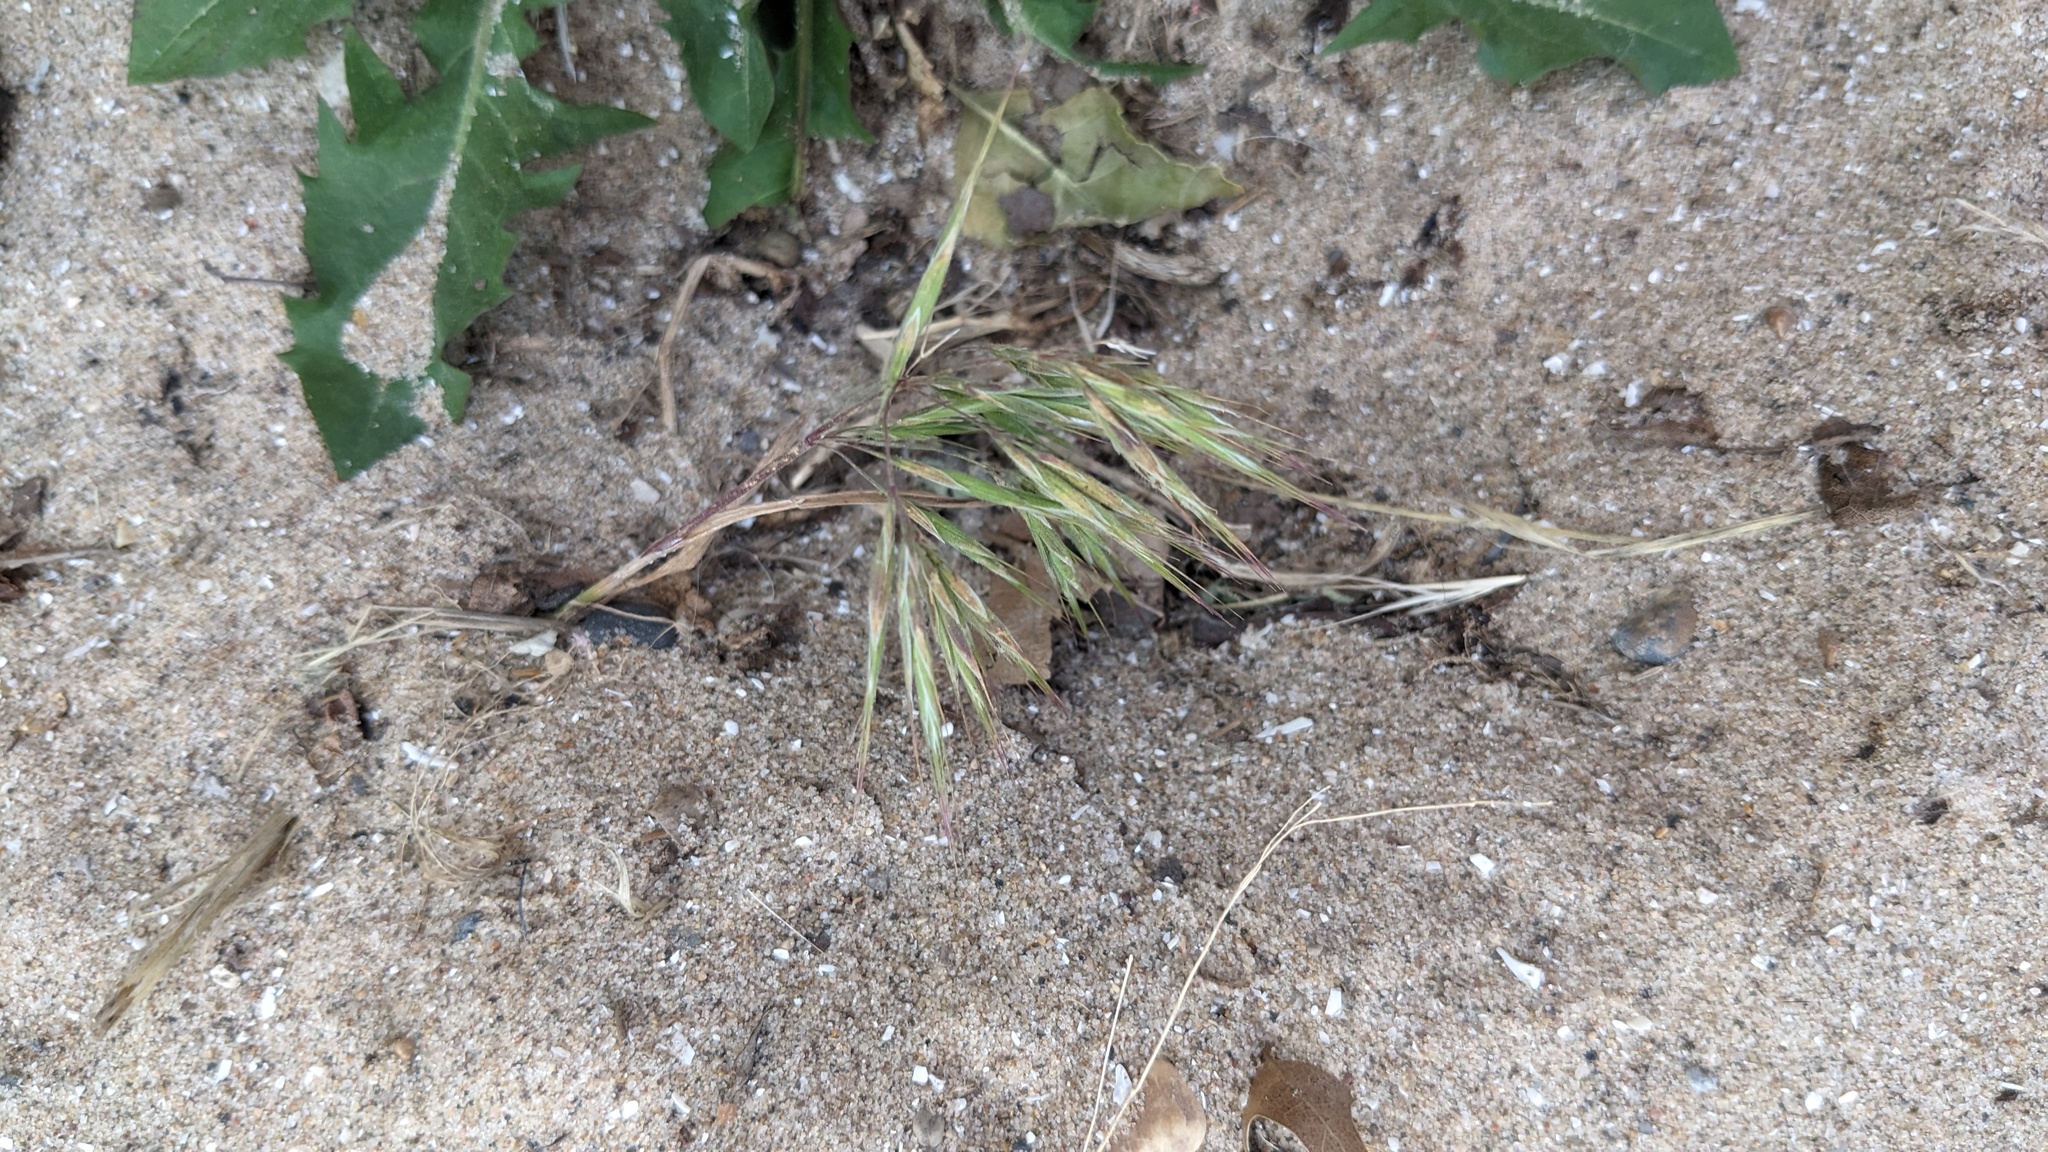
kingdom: Plantae
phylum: Tracheophyta
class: Liliopsida
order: Poales
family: Poaceae
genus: Bromus
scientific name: Bromus tectorum
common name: Cheatgrass
